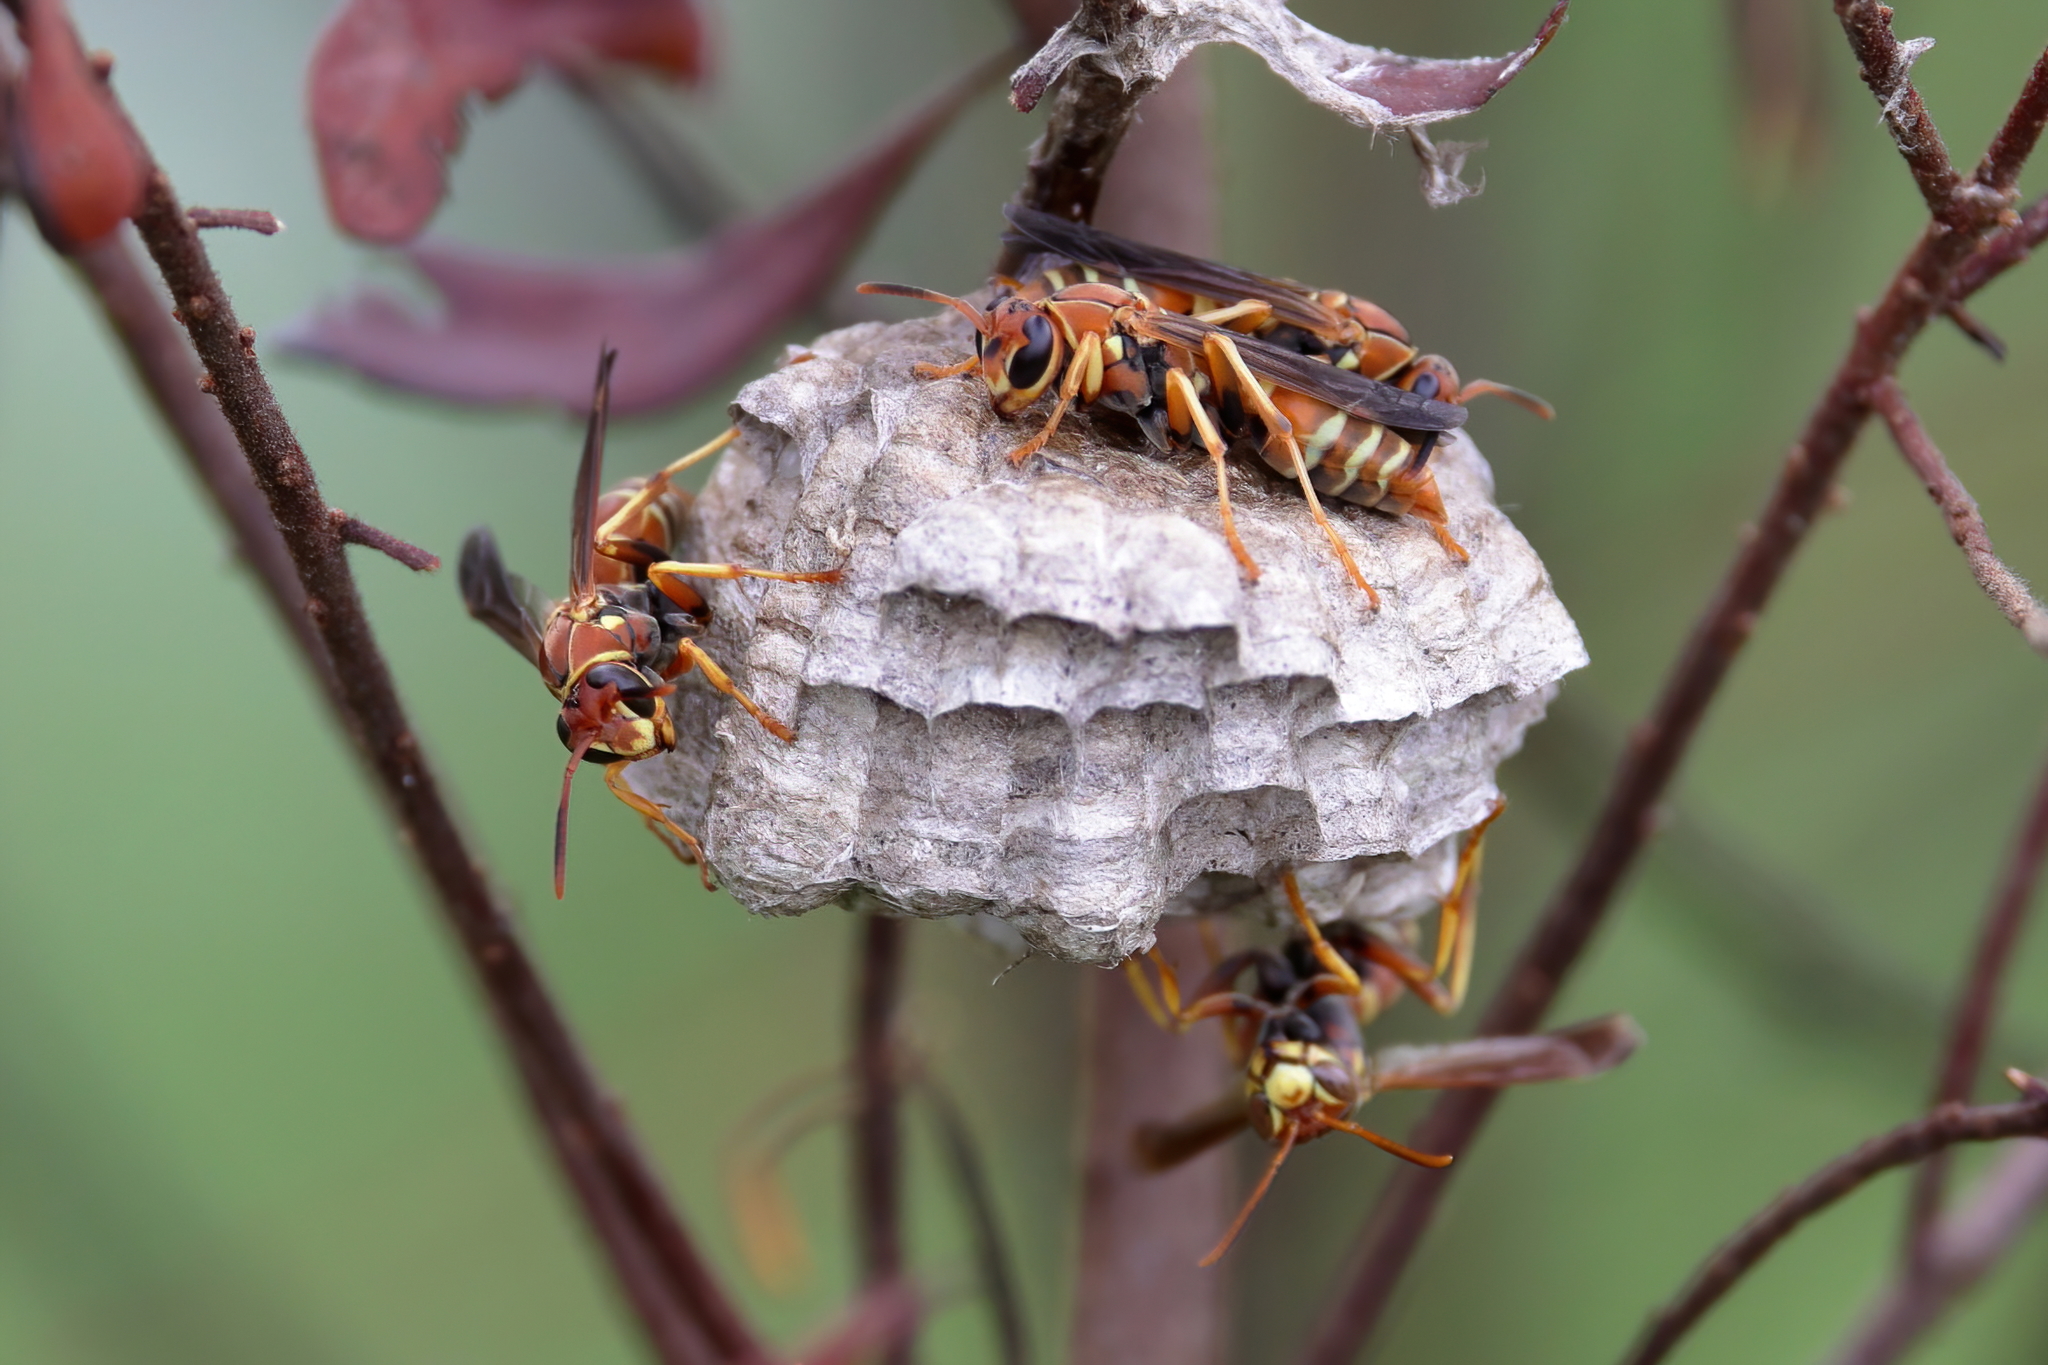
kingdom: Animalia
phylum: Arthropoda
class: Insecta
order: Hymenoptera
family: Eumenidae
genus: Polistes
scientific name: Polistes dorsalis
